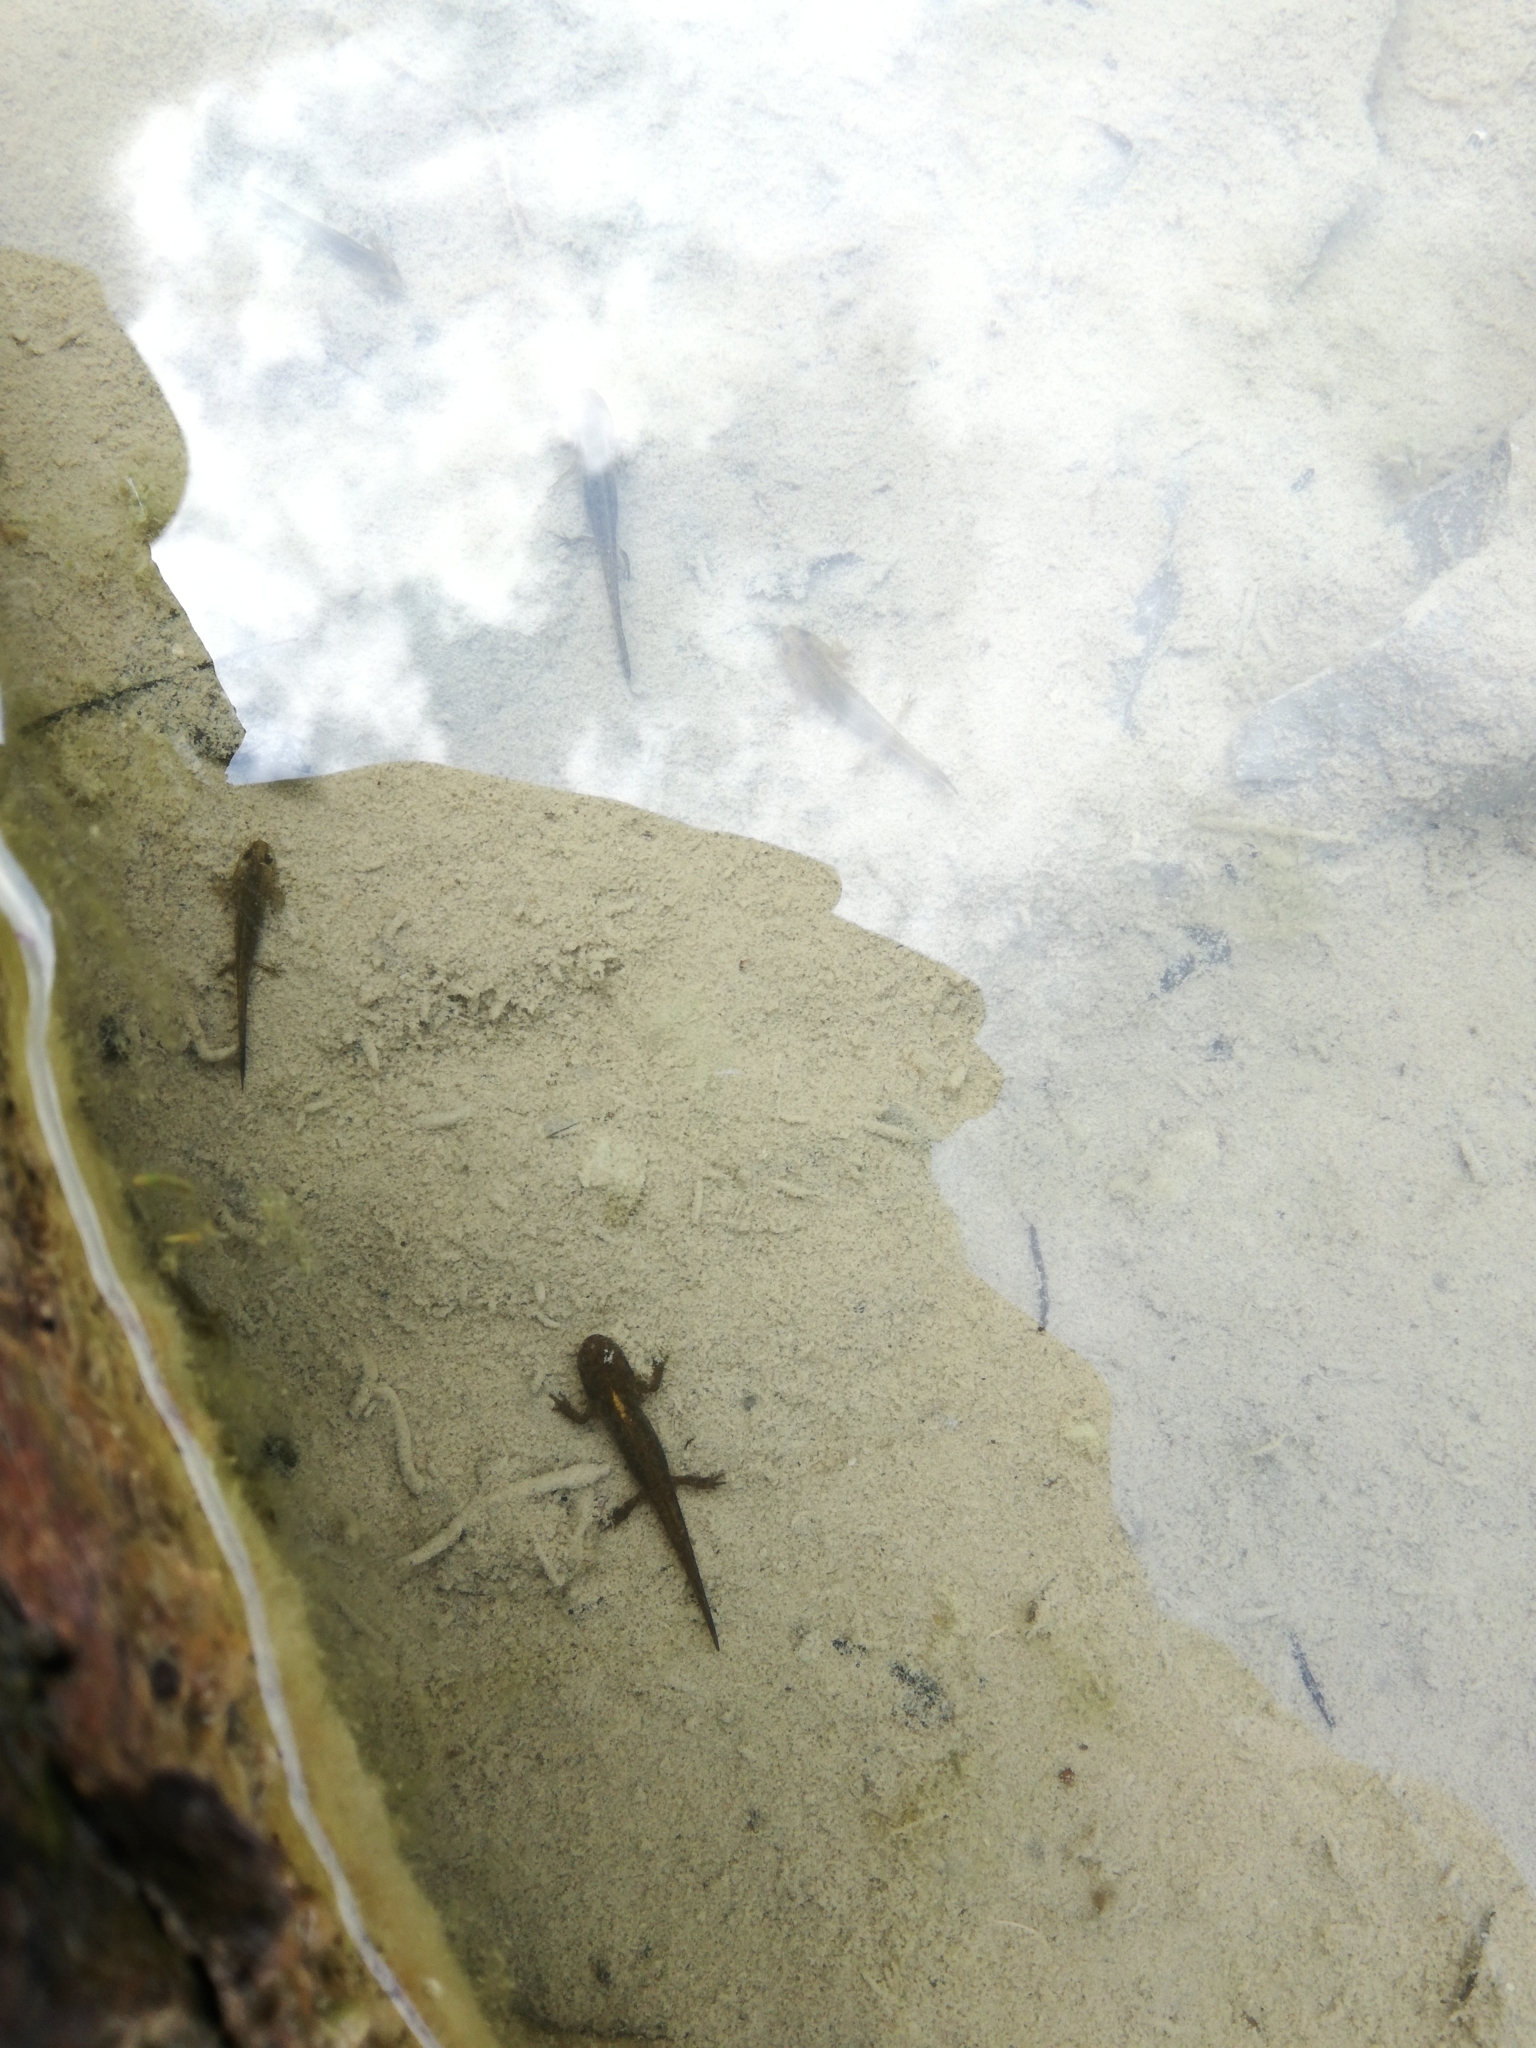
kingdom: Animalia
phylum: Chordata
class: Amphibia
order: Caudata
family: Salamandridae
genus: Ichthyosaura
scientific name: Ichthyosaura alpestris
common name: Alpine newt
